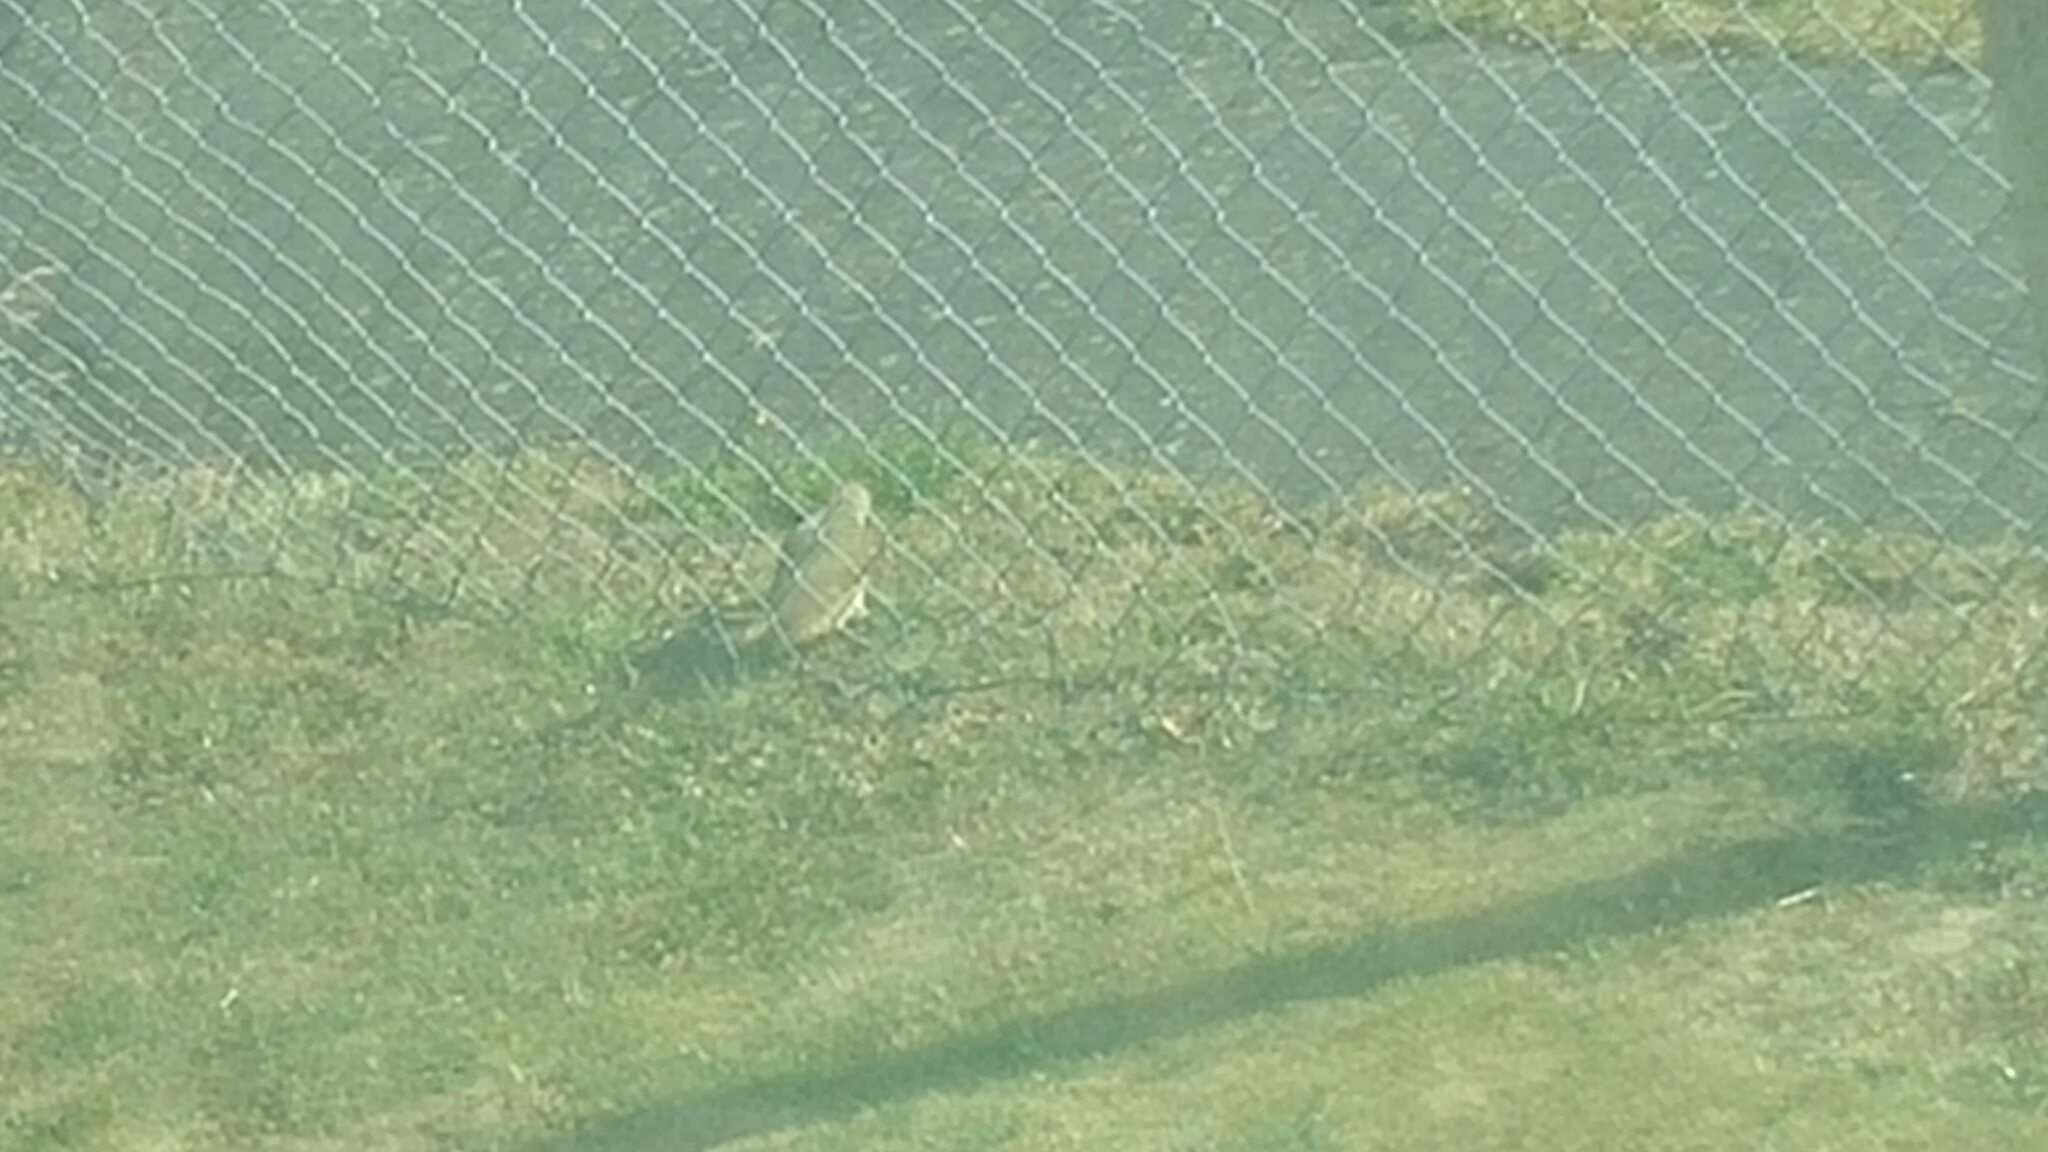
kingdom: Animalia
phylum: Chordata
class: Aves
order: Piciformes
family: Picidae
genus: Picus
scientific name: Picus viridis
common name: European green woodpecker
